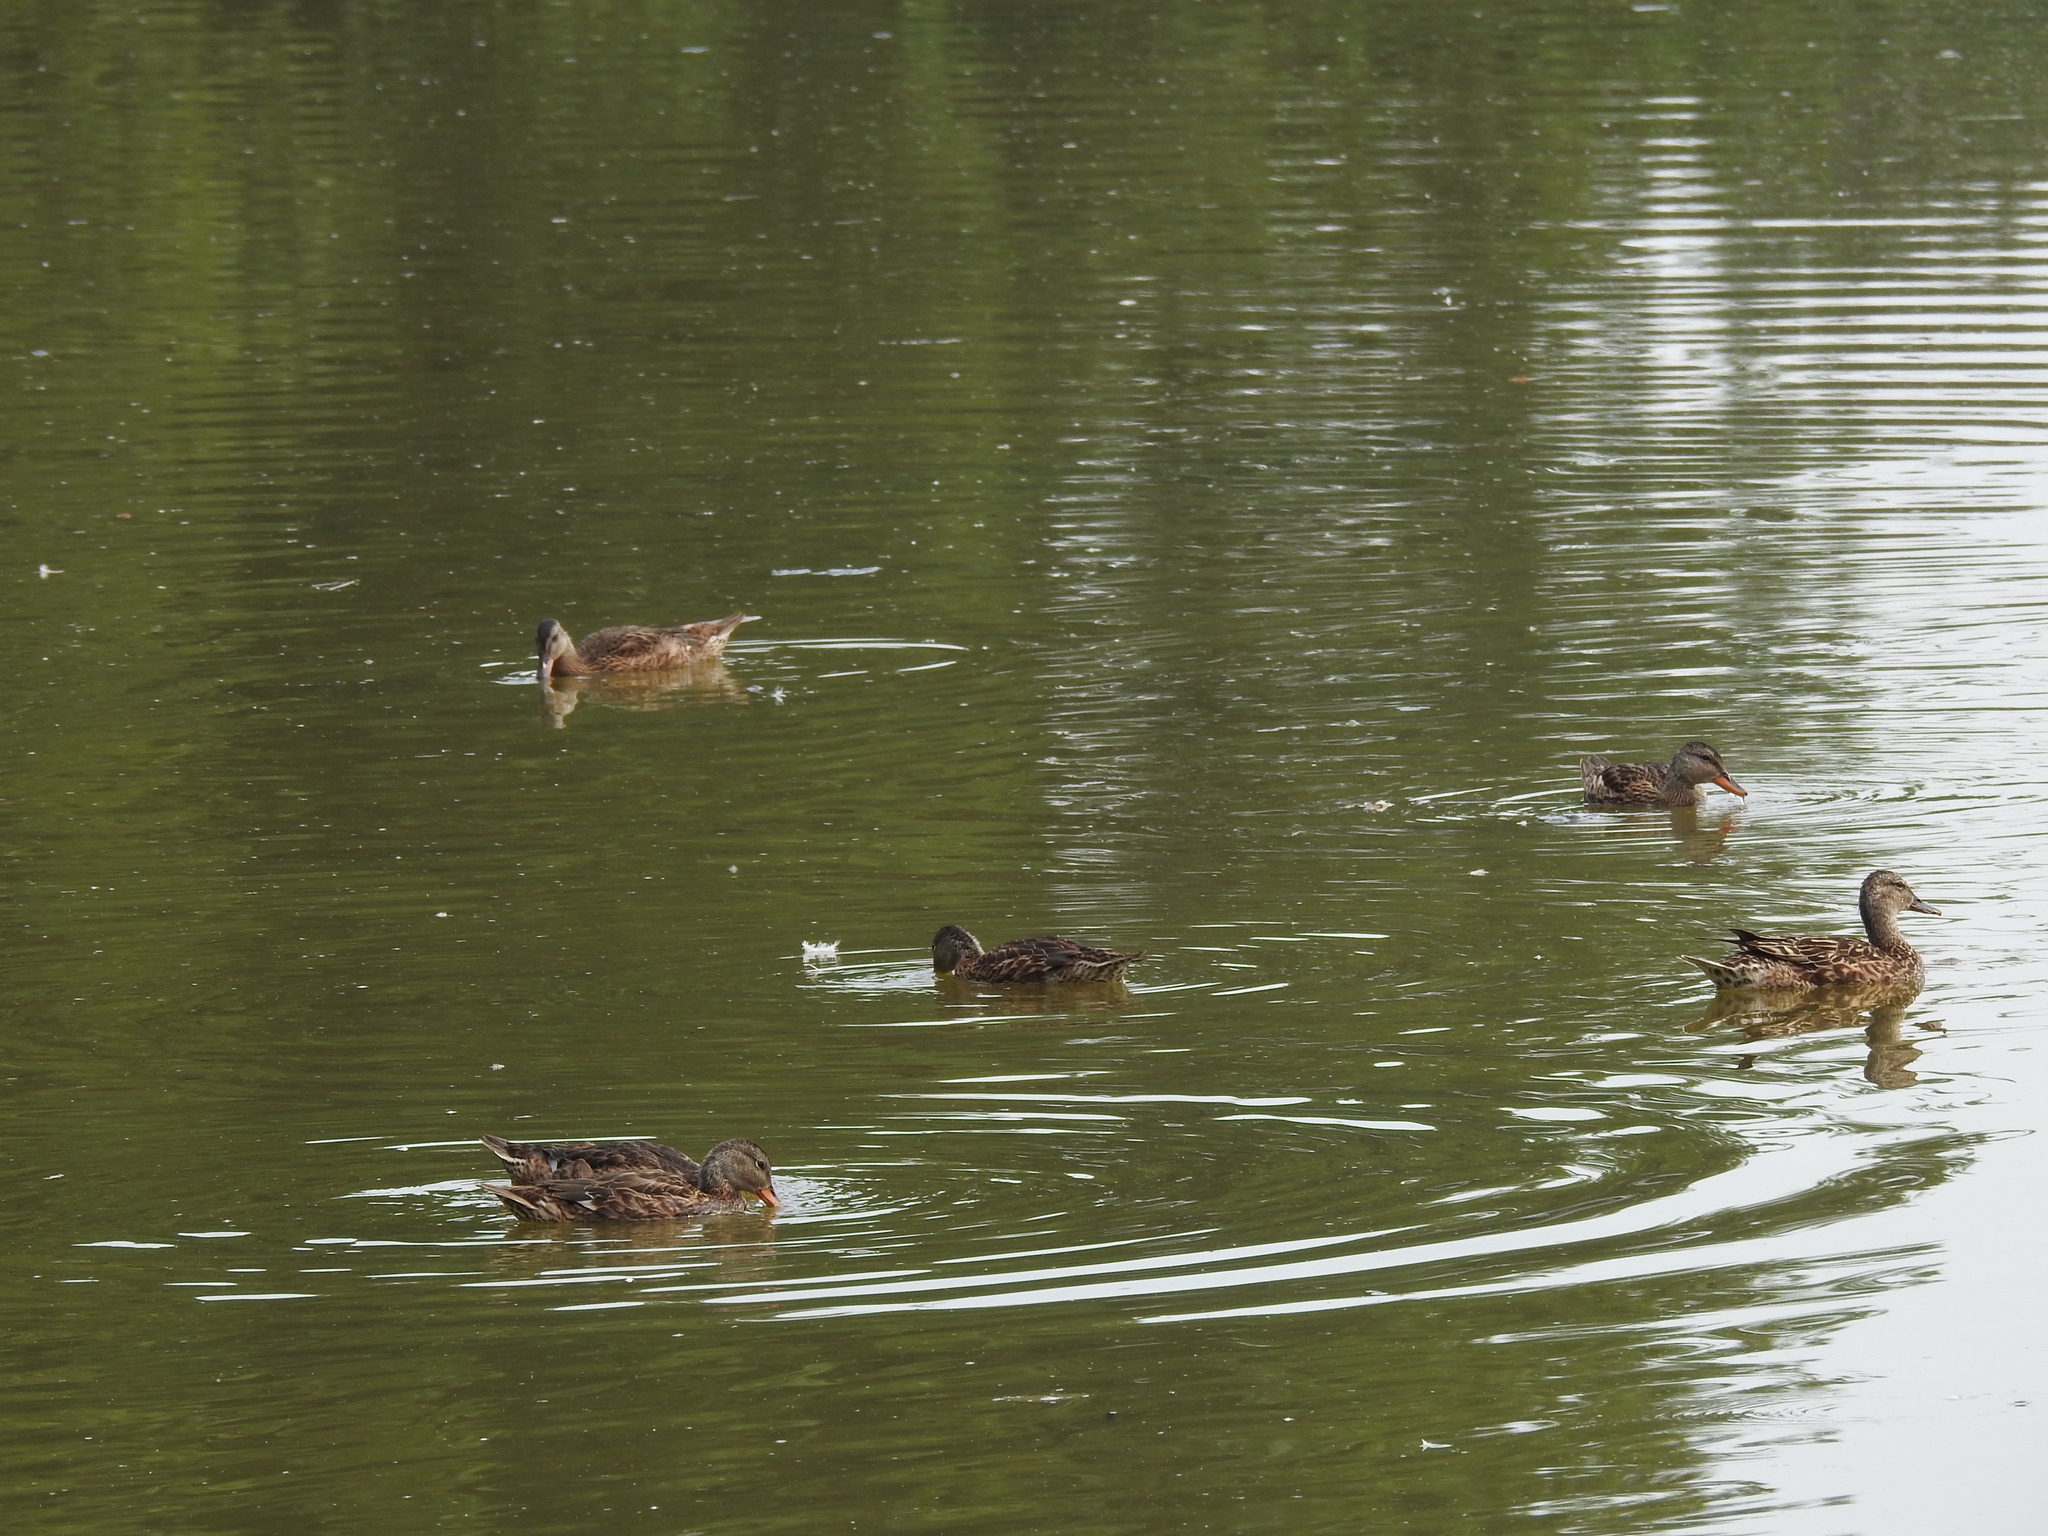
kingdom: Animalia
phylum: Chordata
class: Aves
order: Anseriformes
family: Anatidae
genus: Anas
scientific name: Anas platyrhynchos
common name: Mallard
